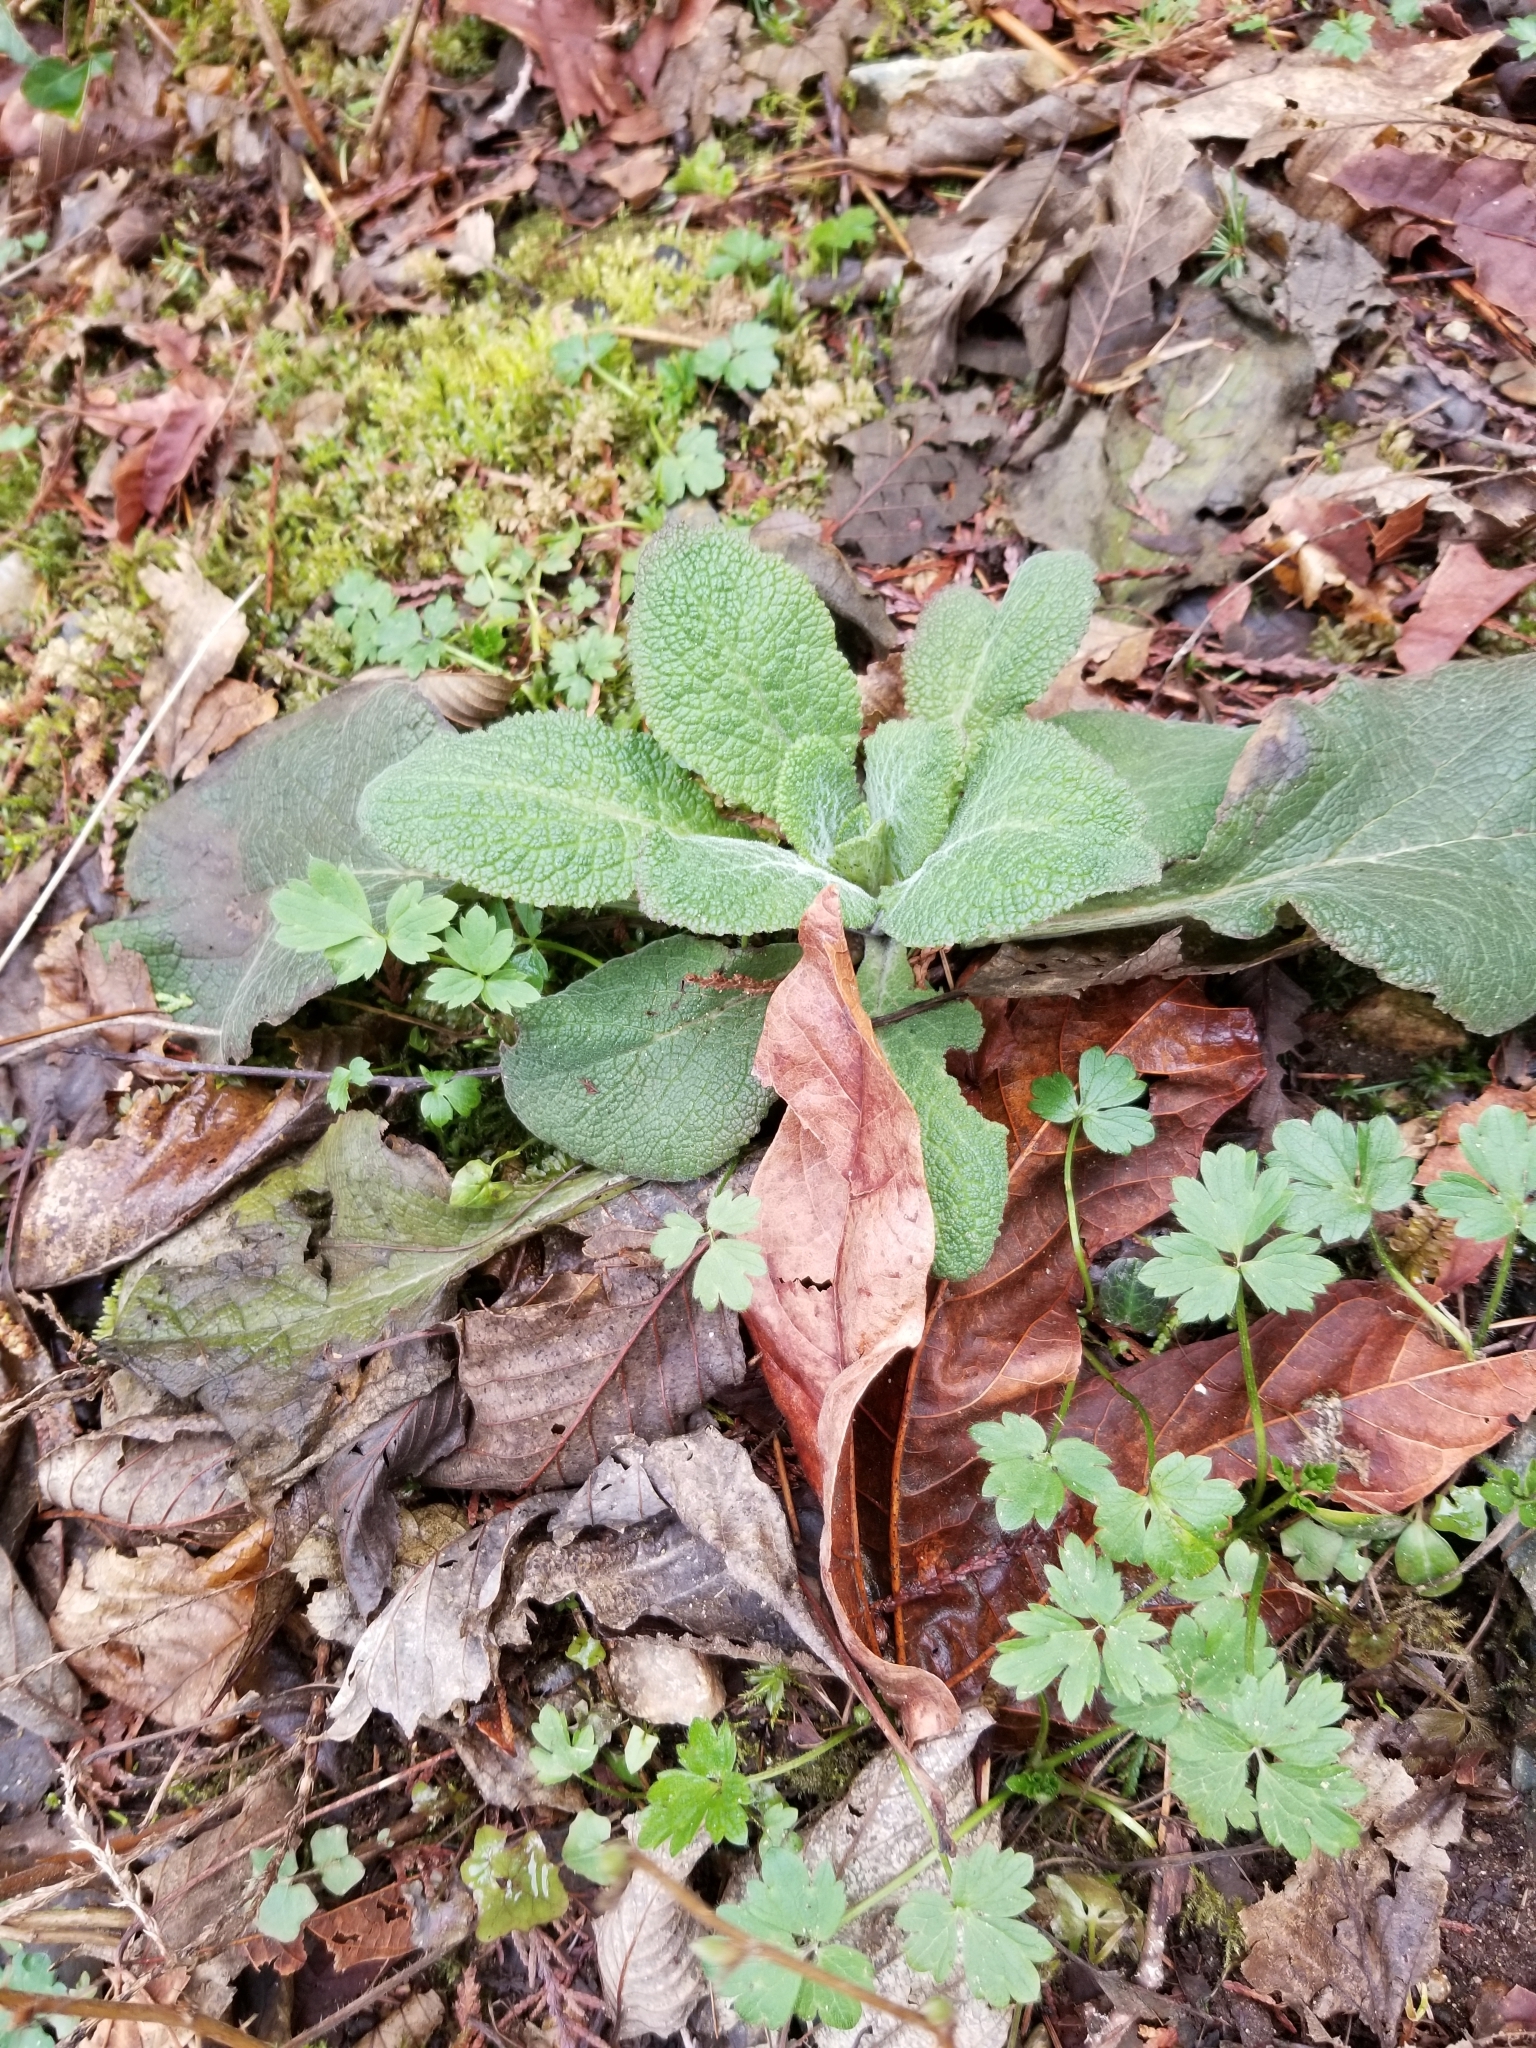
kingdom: Plantae
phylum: Tracheophyta
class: Magnoliopsida
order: Lamiales
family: Plantaginaceae
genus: Digitalis
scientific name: Digitalis purpurea
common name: Foxglove
